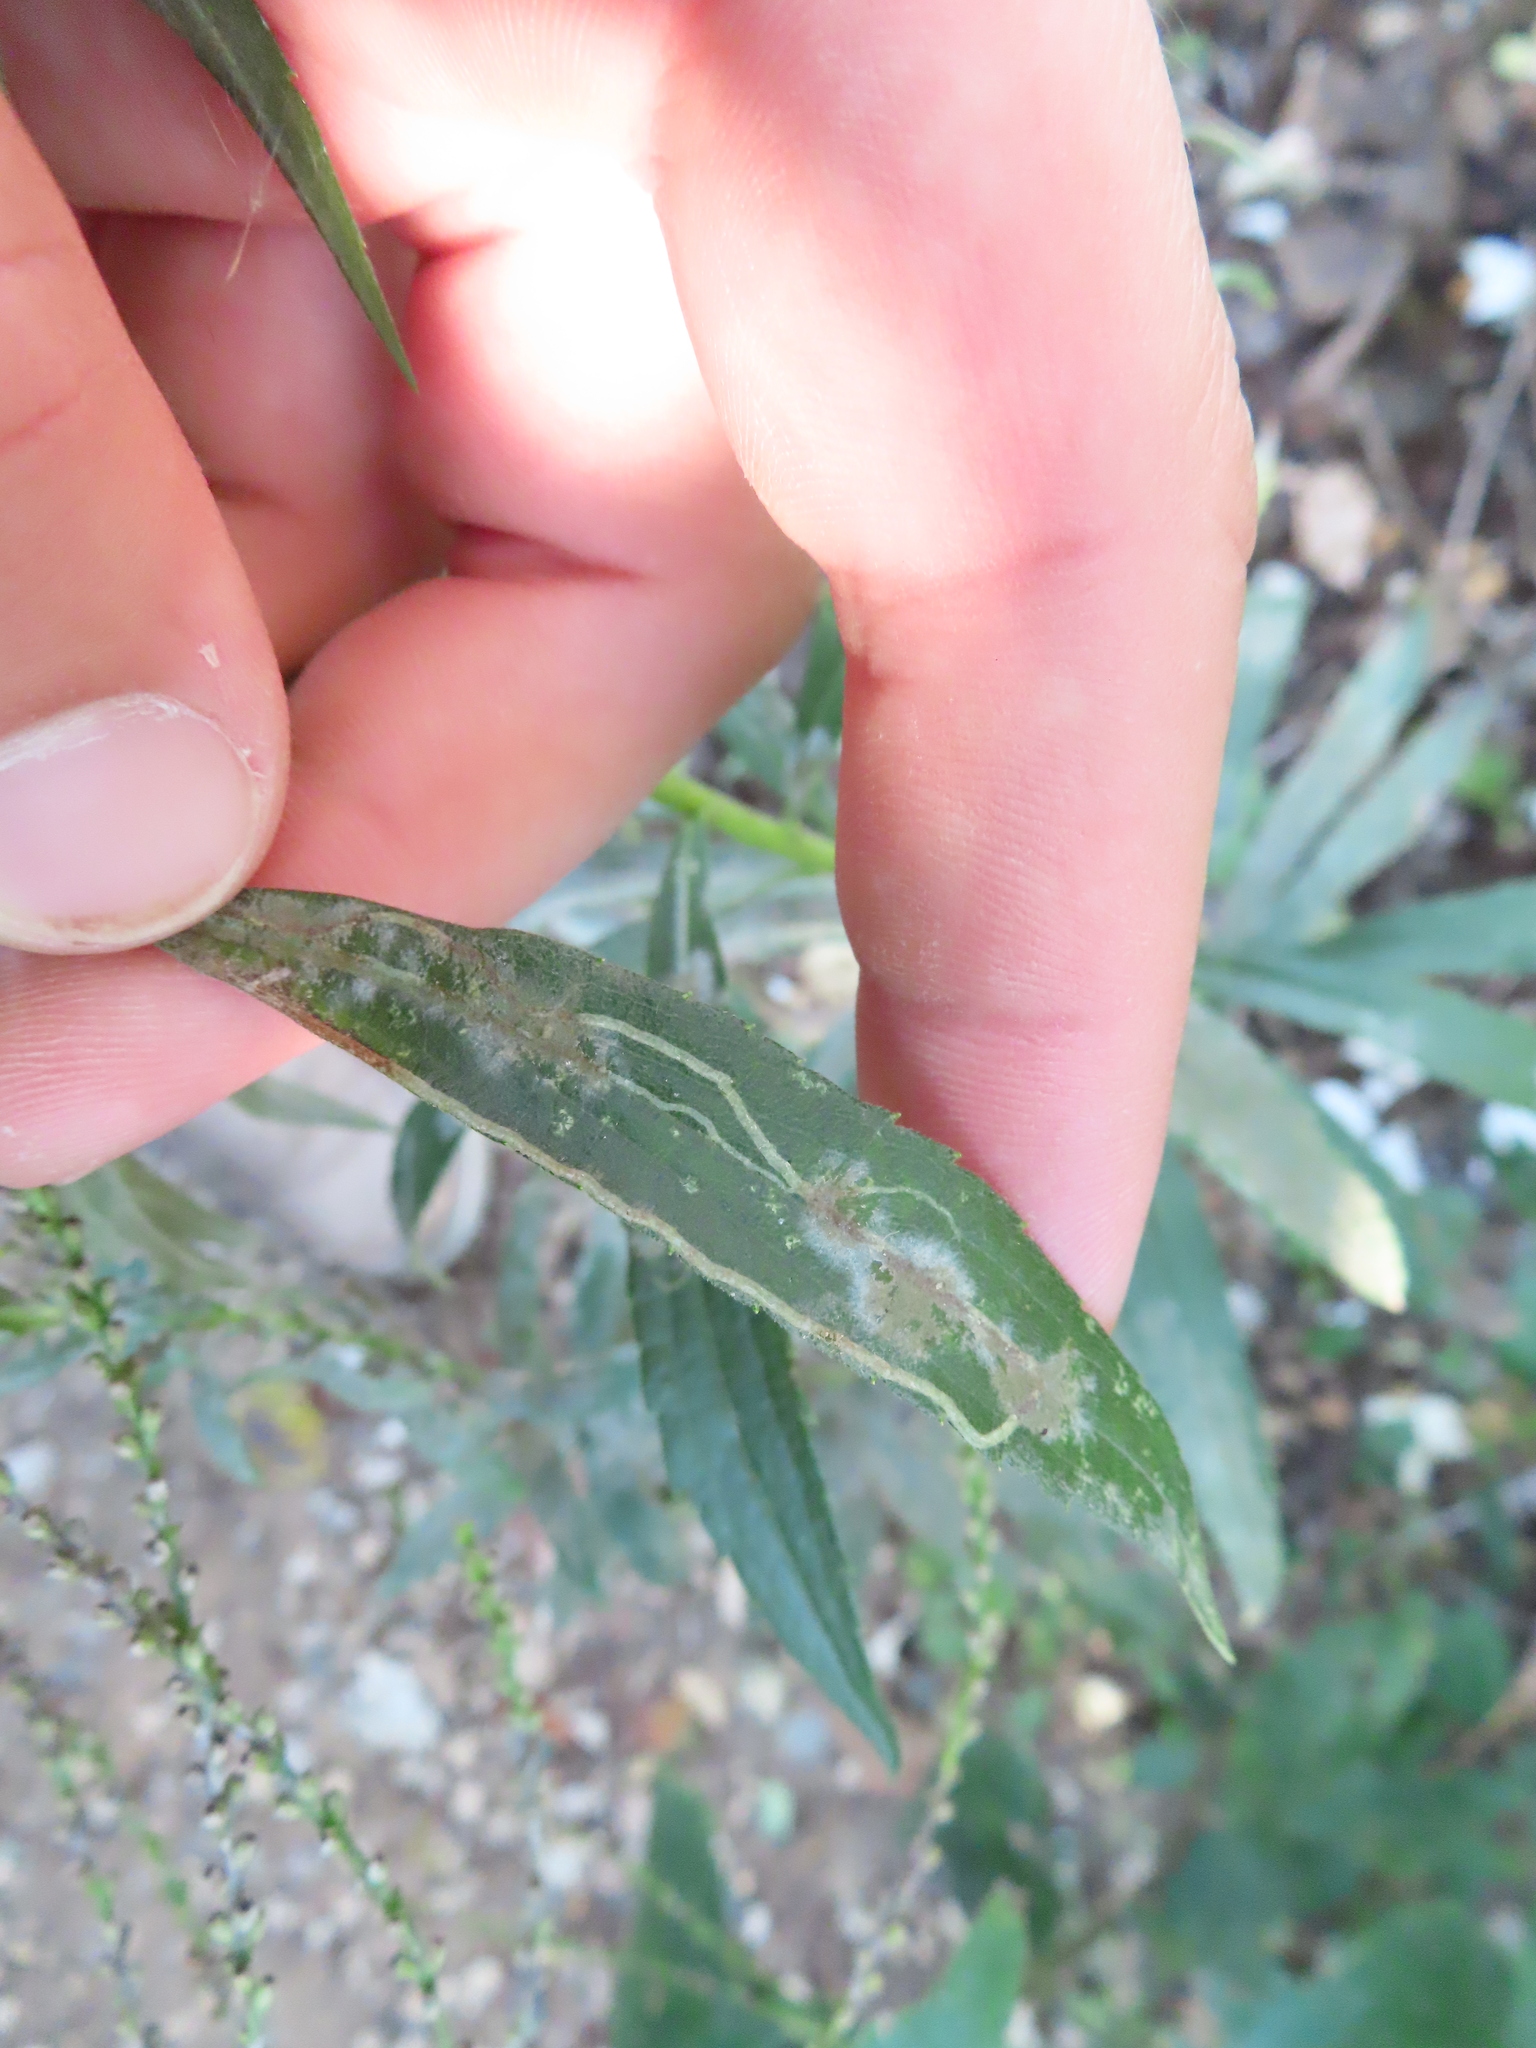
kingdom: Animalia
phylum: Arthropoda
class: Insecta
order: Diptera
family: Agromyzidae
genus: Ophiomyia
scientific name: Ophiomyia maura
